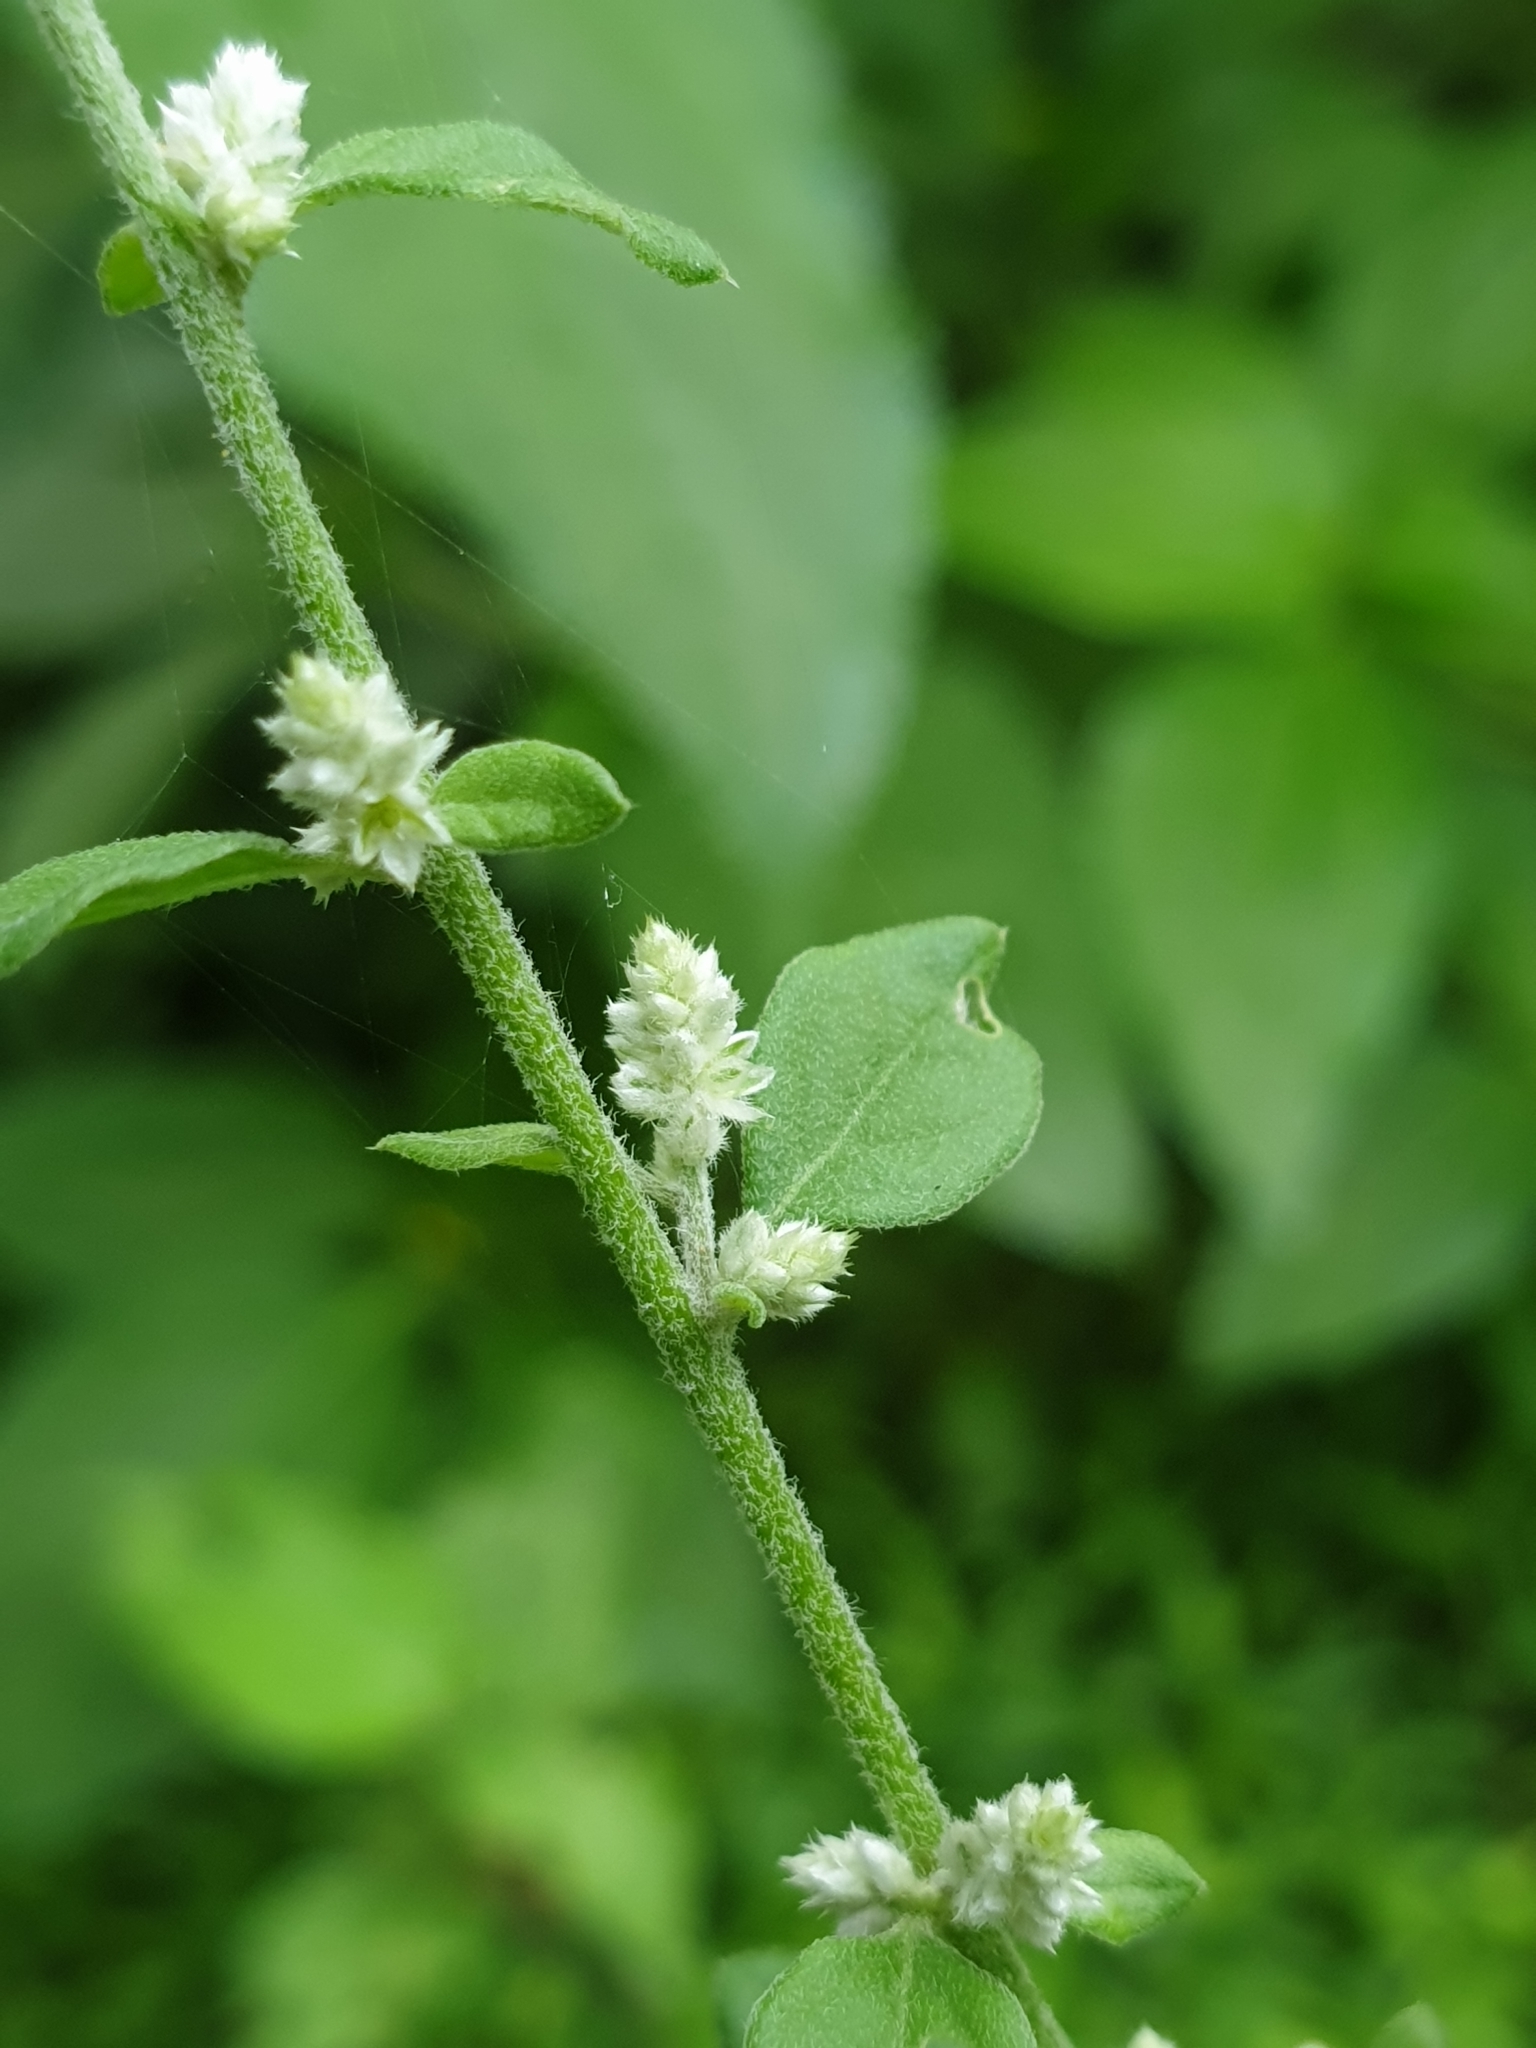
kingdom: Plantae
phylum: Tracheophyta
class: Magnoliopsida
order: Caryophyllales
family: Amaranthaceae
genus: Ouret
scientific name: Ouret lanata
